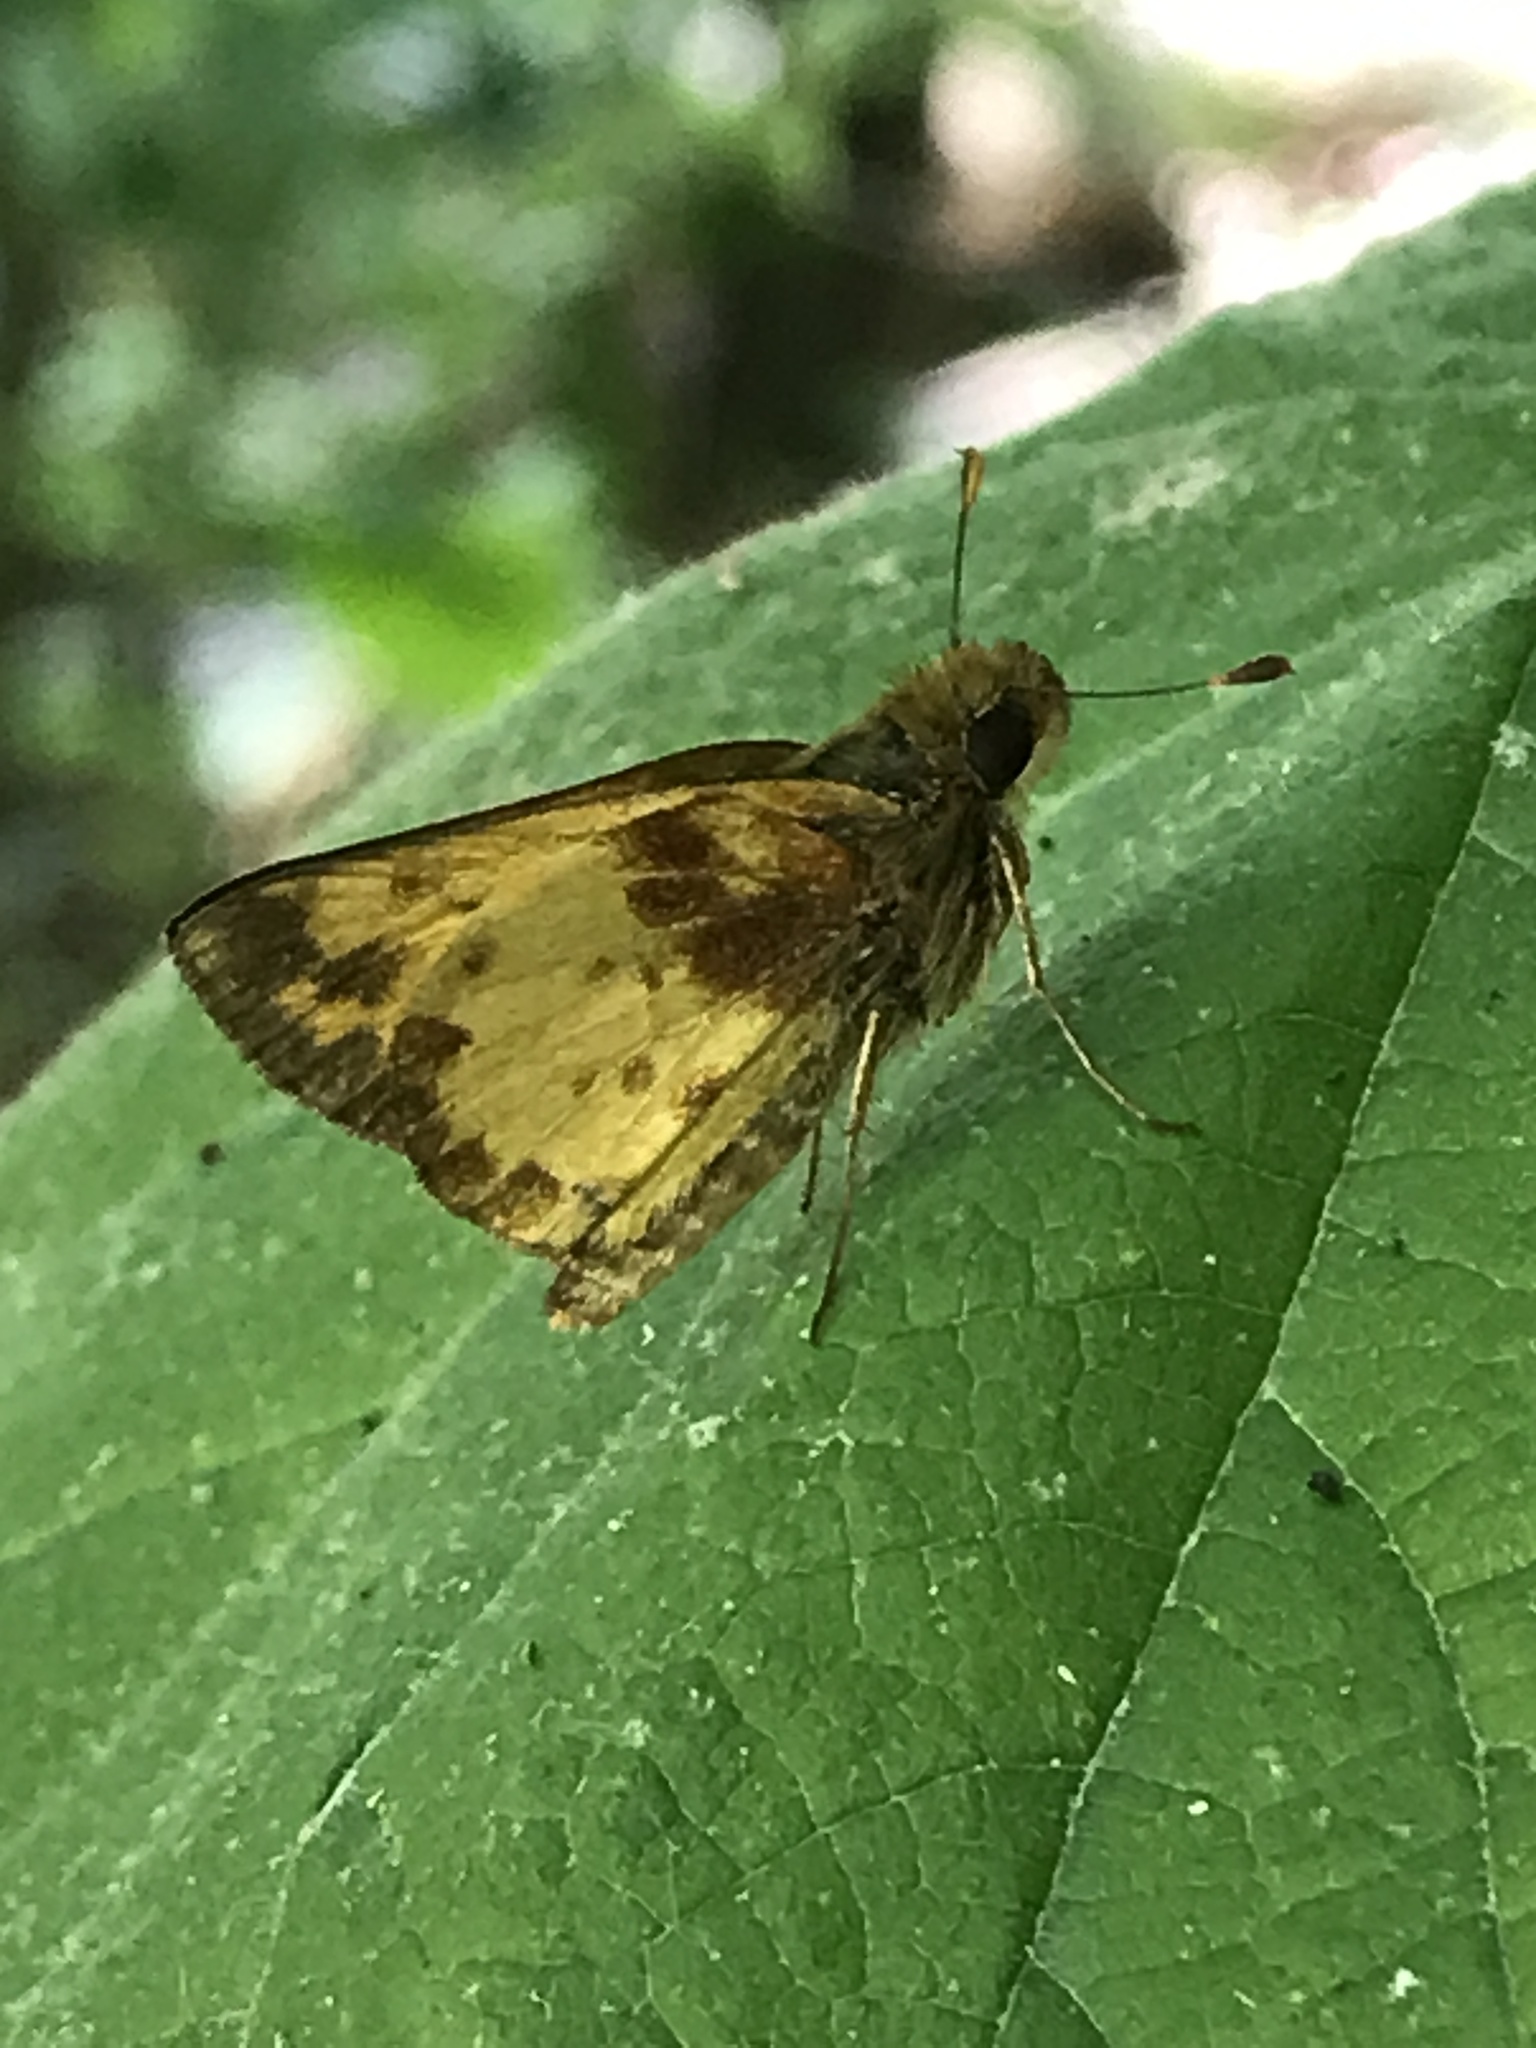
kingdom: Animalia
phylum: Arthropoda
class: Insecta
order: Lepidoptera
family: Hesperiidae
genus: Lon
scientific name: Lon zabulon
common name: Zabulon skipper
